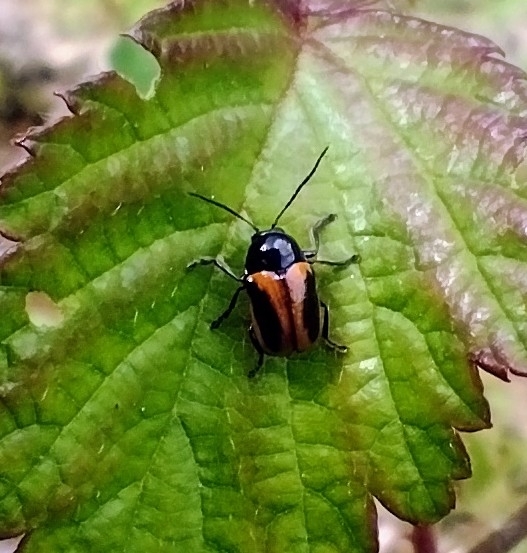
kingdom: Animalia
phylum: Arthropoda
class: Insecta
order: Coleoptera
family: Chrysomelidae
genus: Chiridopsis
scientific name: Chiridopsis bipunctata
